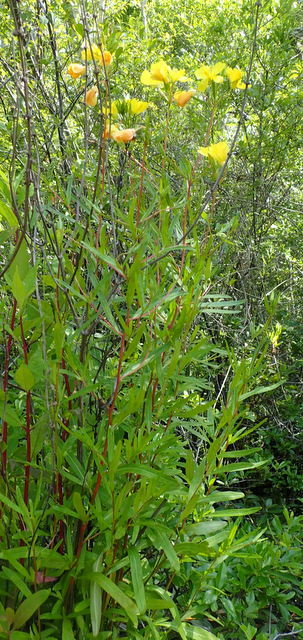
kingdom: Plantae
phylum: Tracheophyta
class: Magnoliopsida
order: Myrtales
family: Onagraceae
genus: Oenothera
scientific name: Oenothera fruticosa
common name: Southern sundrops
